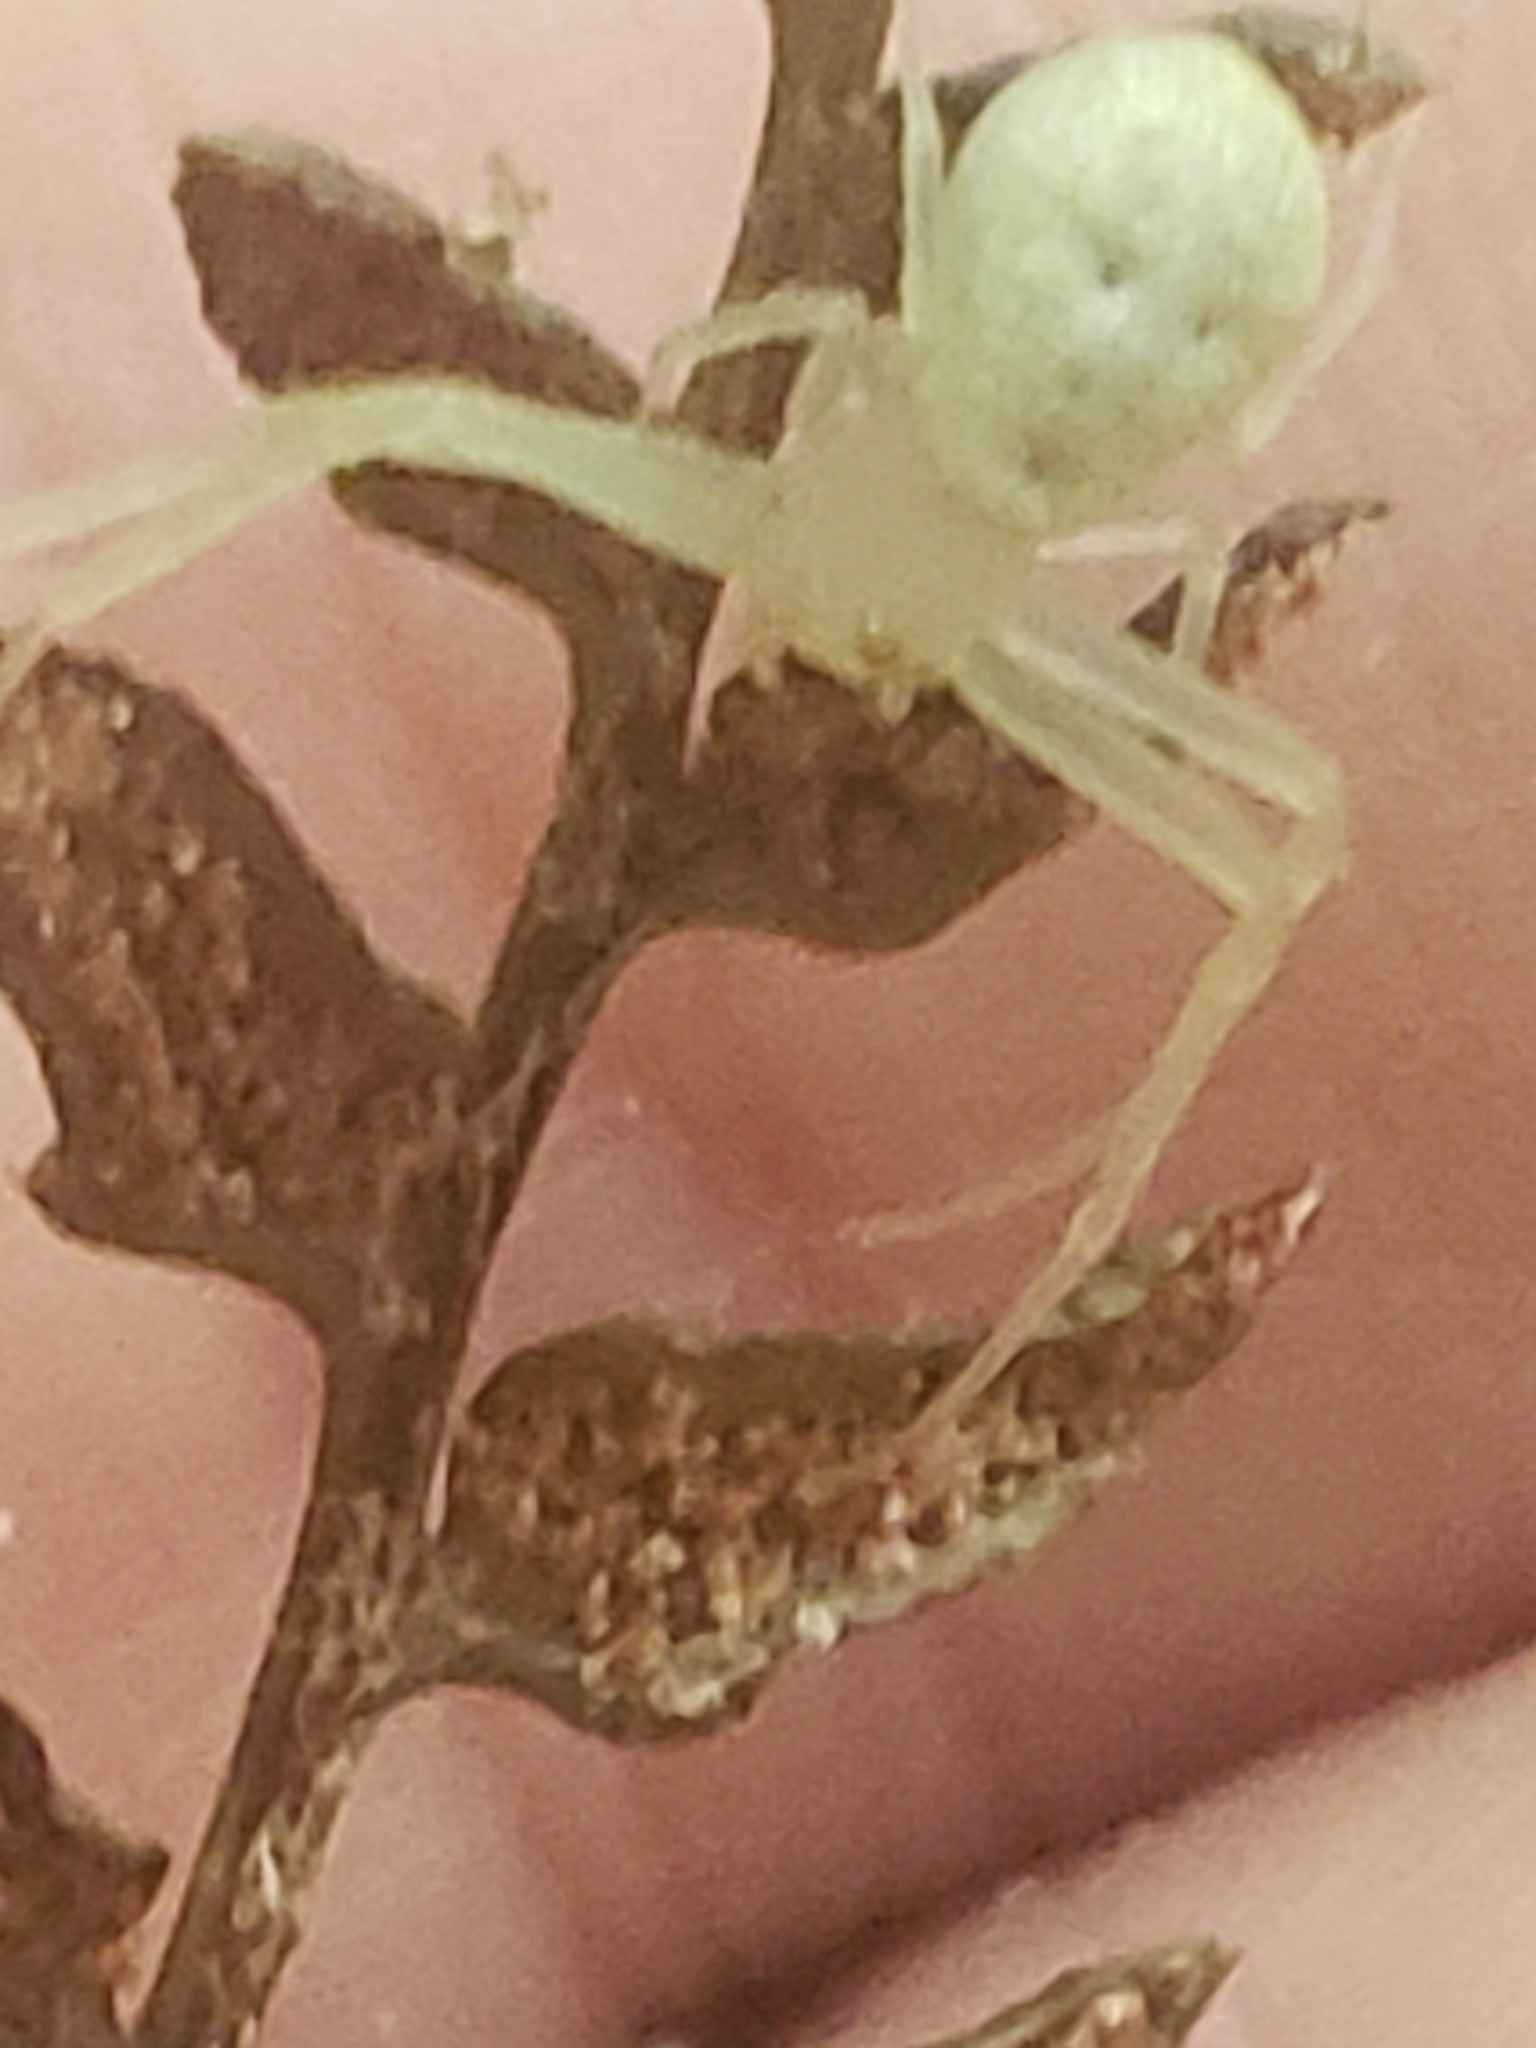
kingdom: Animalia
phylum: Arthropoda
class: Arachnida
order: Araneae
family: Thomisidae
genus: Misumessus
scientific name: Misumessus oblongus
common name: American green crab spider
